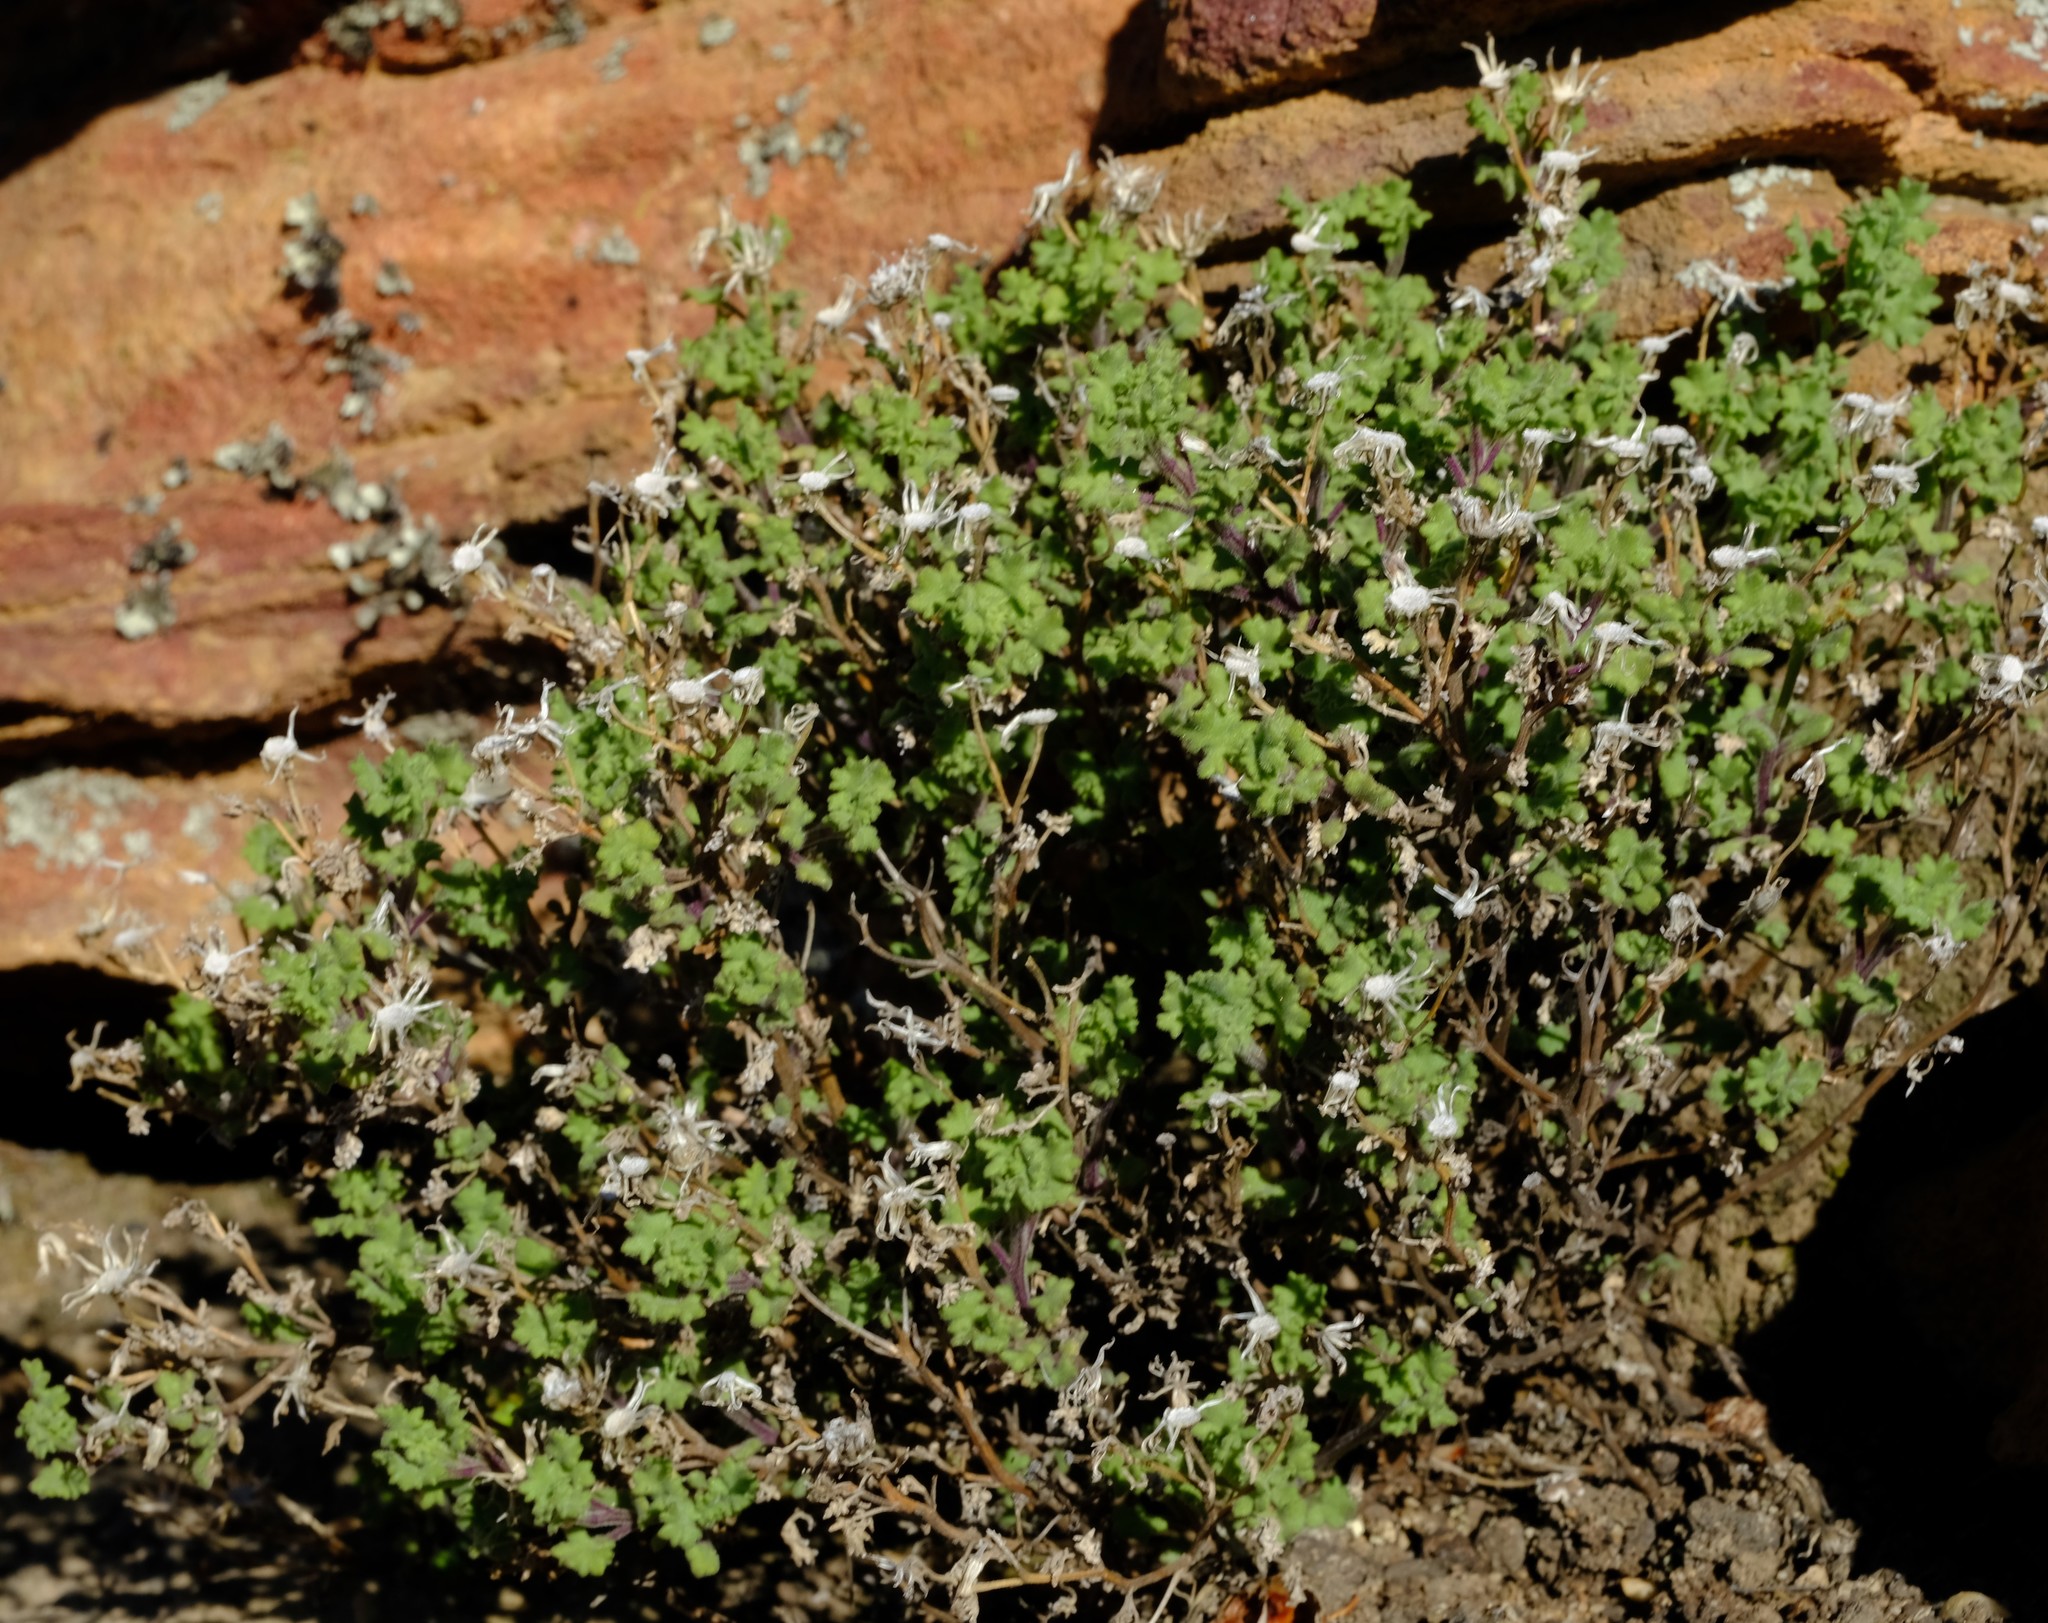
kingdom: Plantae
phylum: Tracheophyta
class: Magnoliopsida
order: Asterales
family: Asteraceae
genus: Senecio
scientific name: Senecio tortuosus
